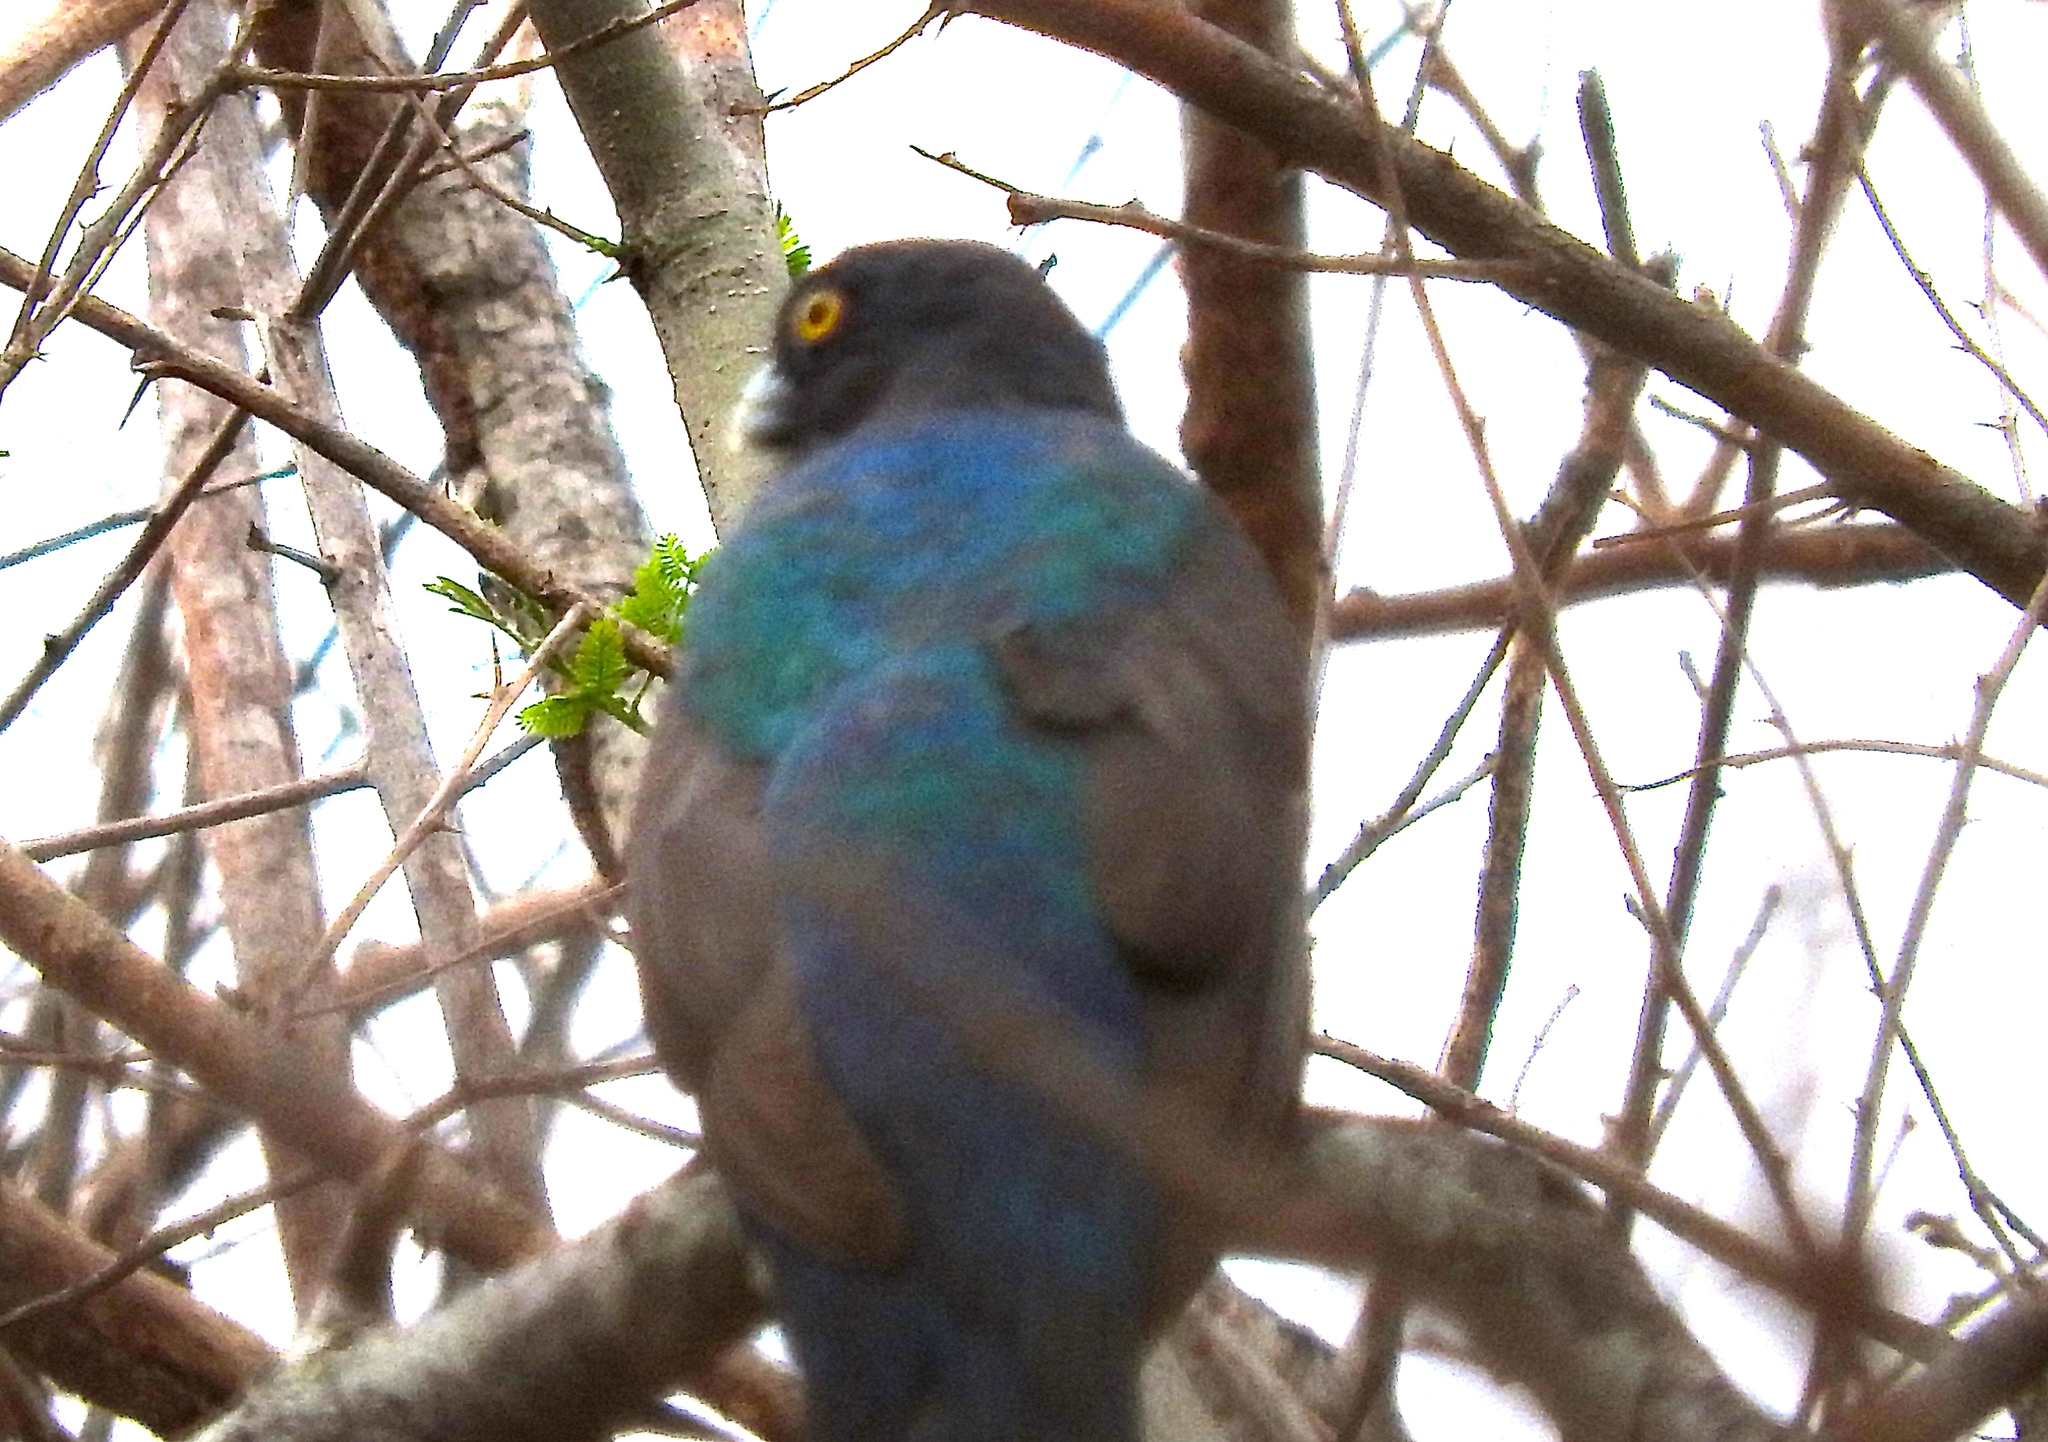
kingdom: Animalia
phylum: Chordata
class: Aves
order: Trogoniformes
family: Trogonidae
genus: Trogon
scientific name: Trogon citreolus
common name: Citreoline trogon
